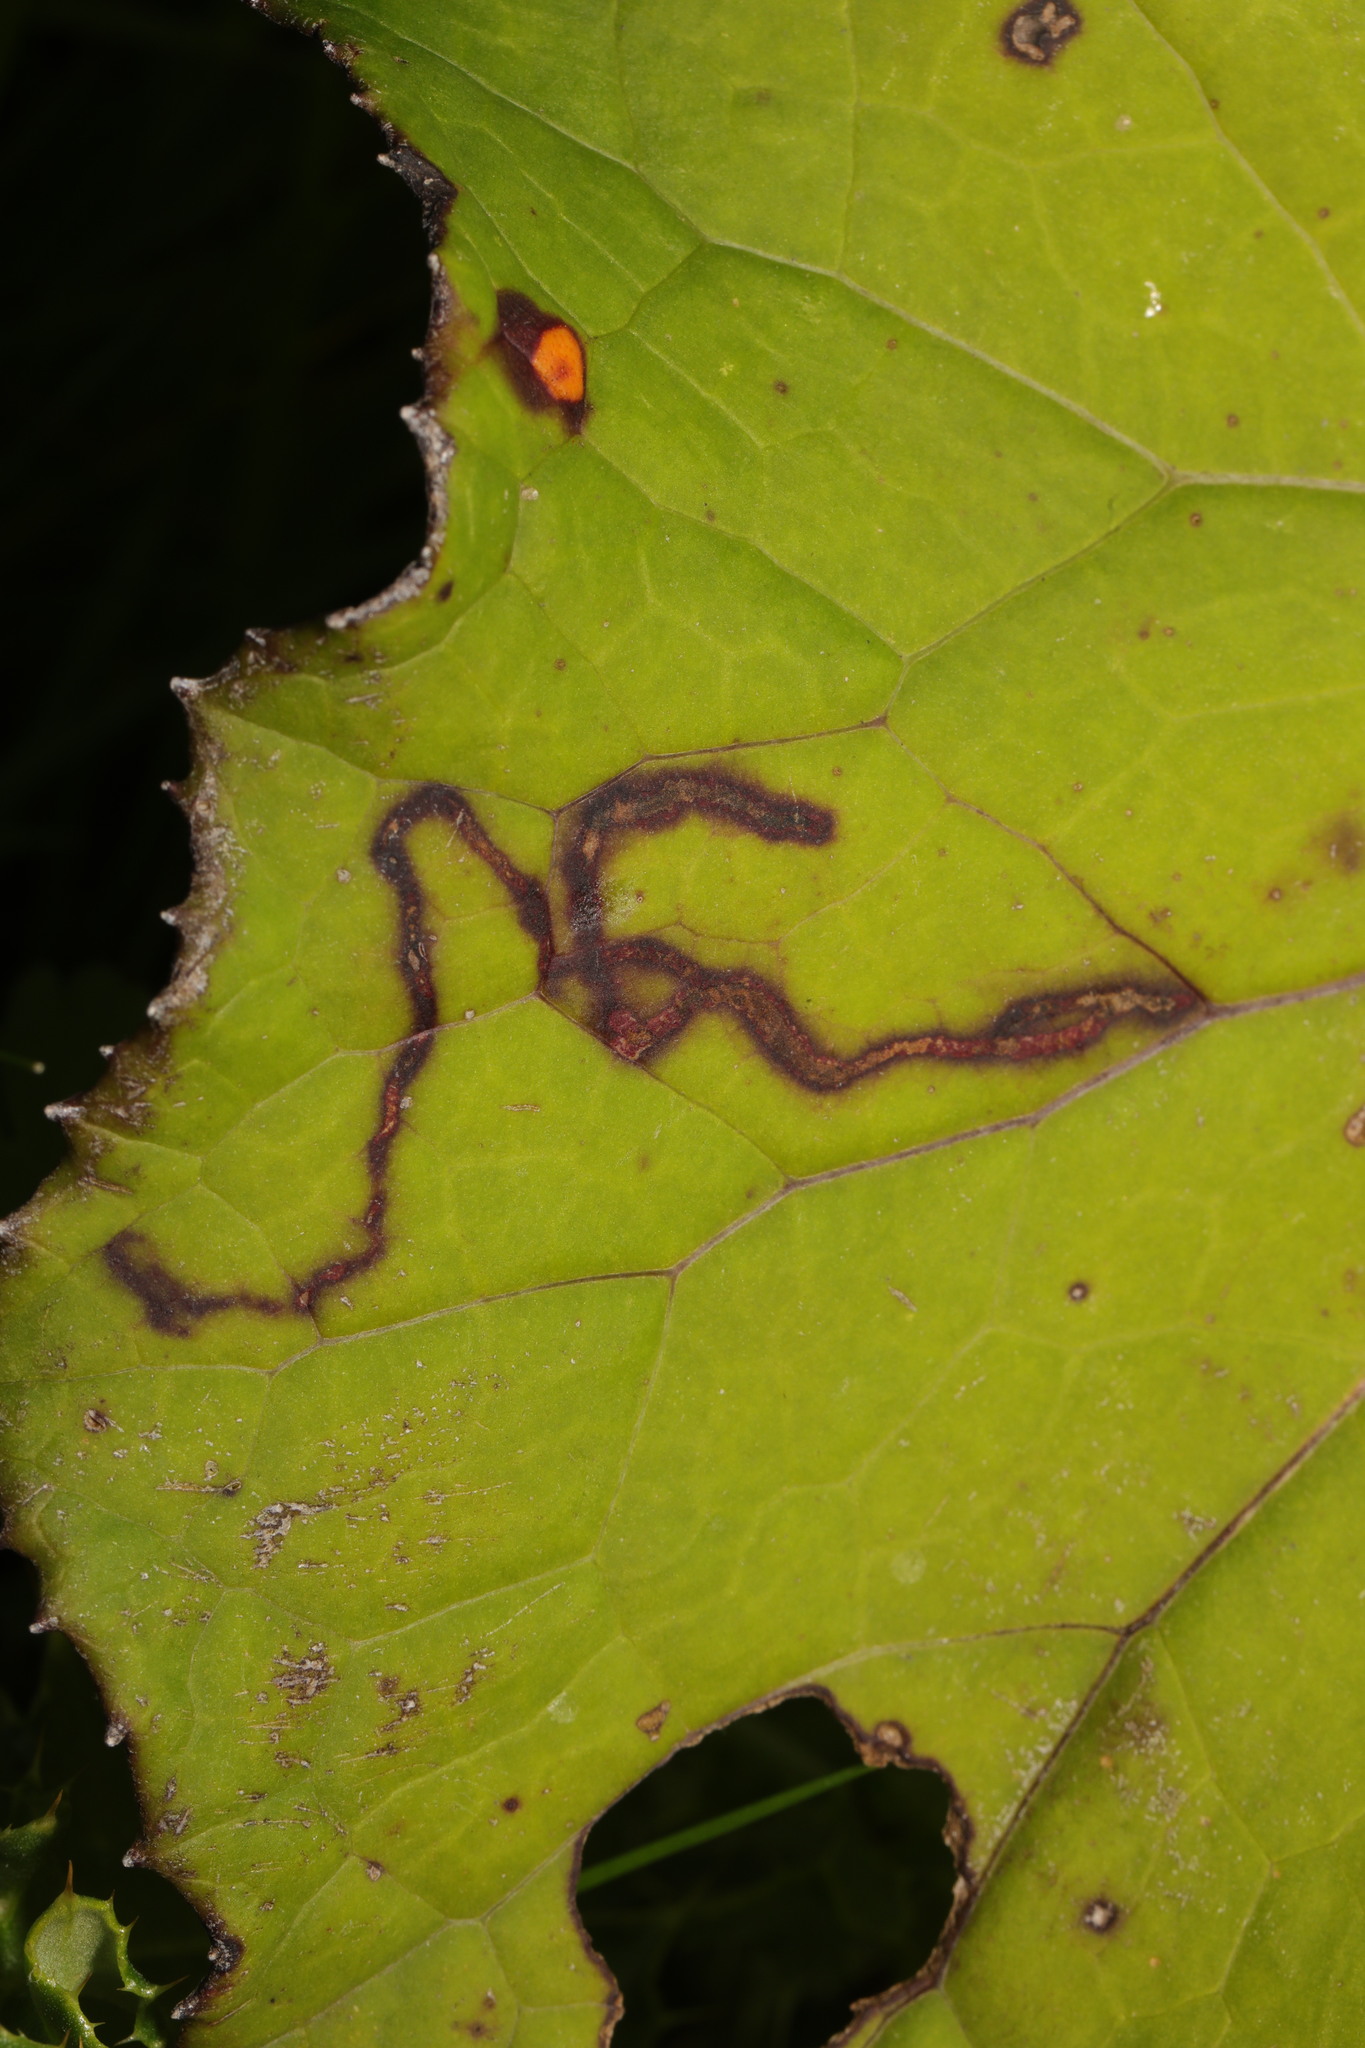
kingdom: Animalia
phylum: Arthropoda
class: Insecta
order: Diptera
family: Agromyzidae
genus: Phytomyza
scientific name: Phytomyza tussilaginis
